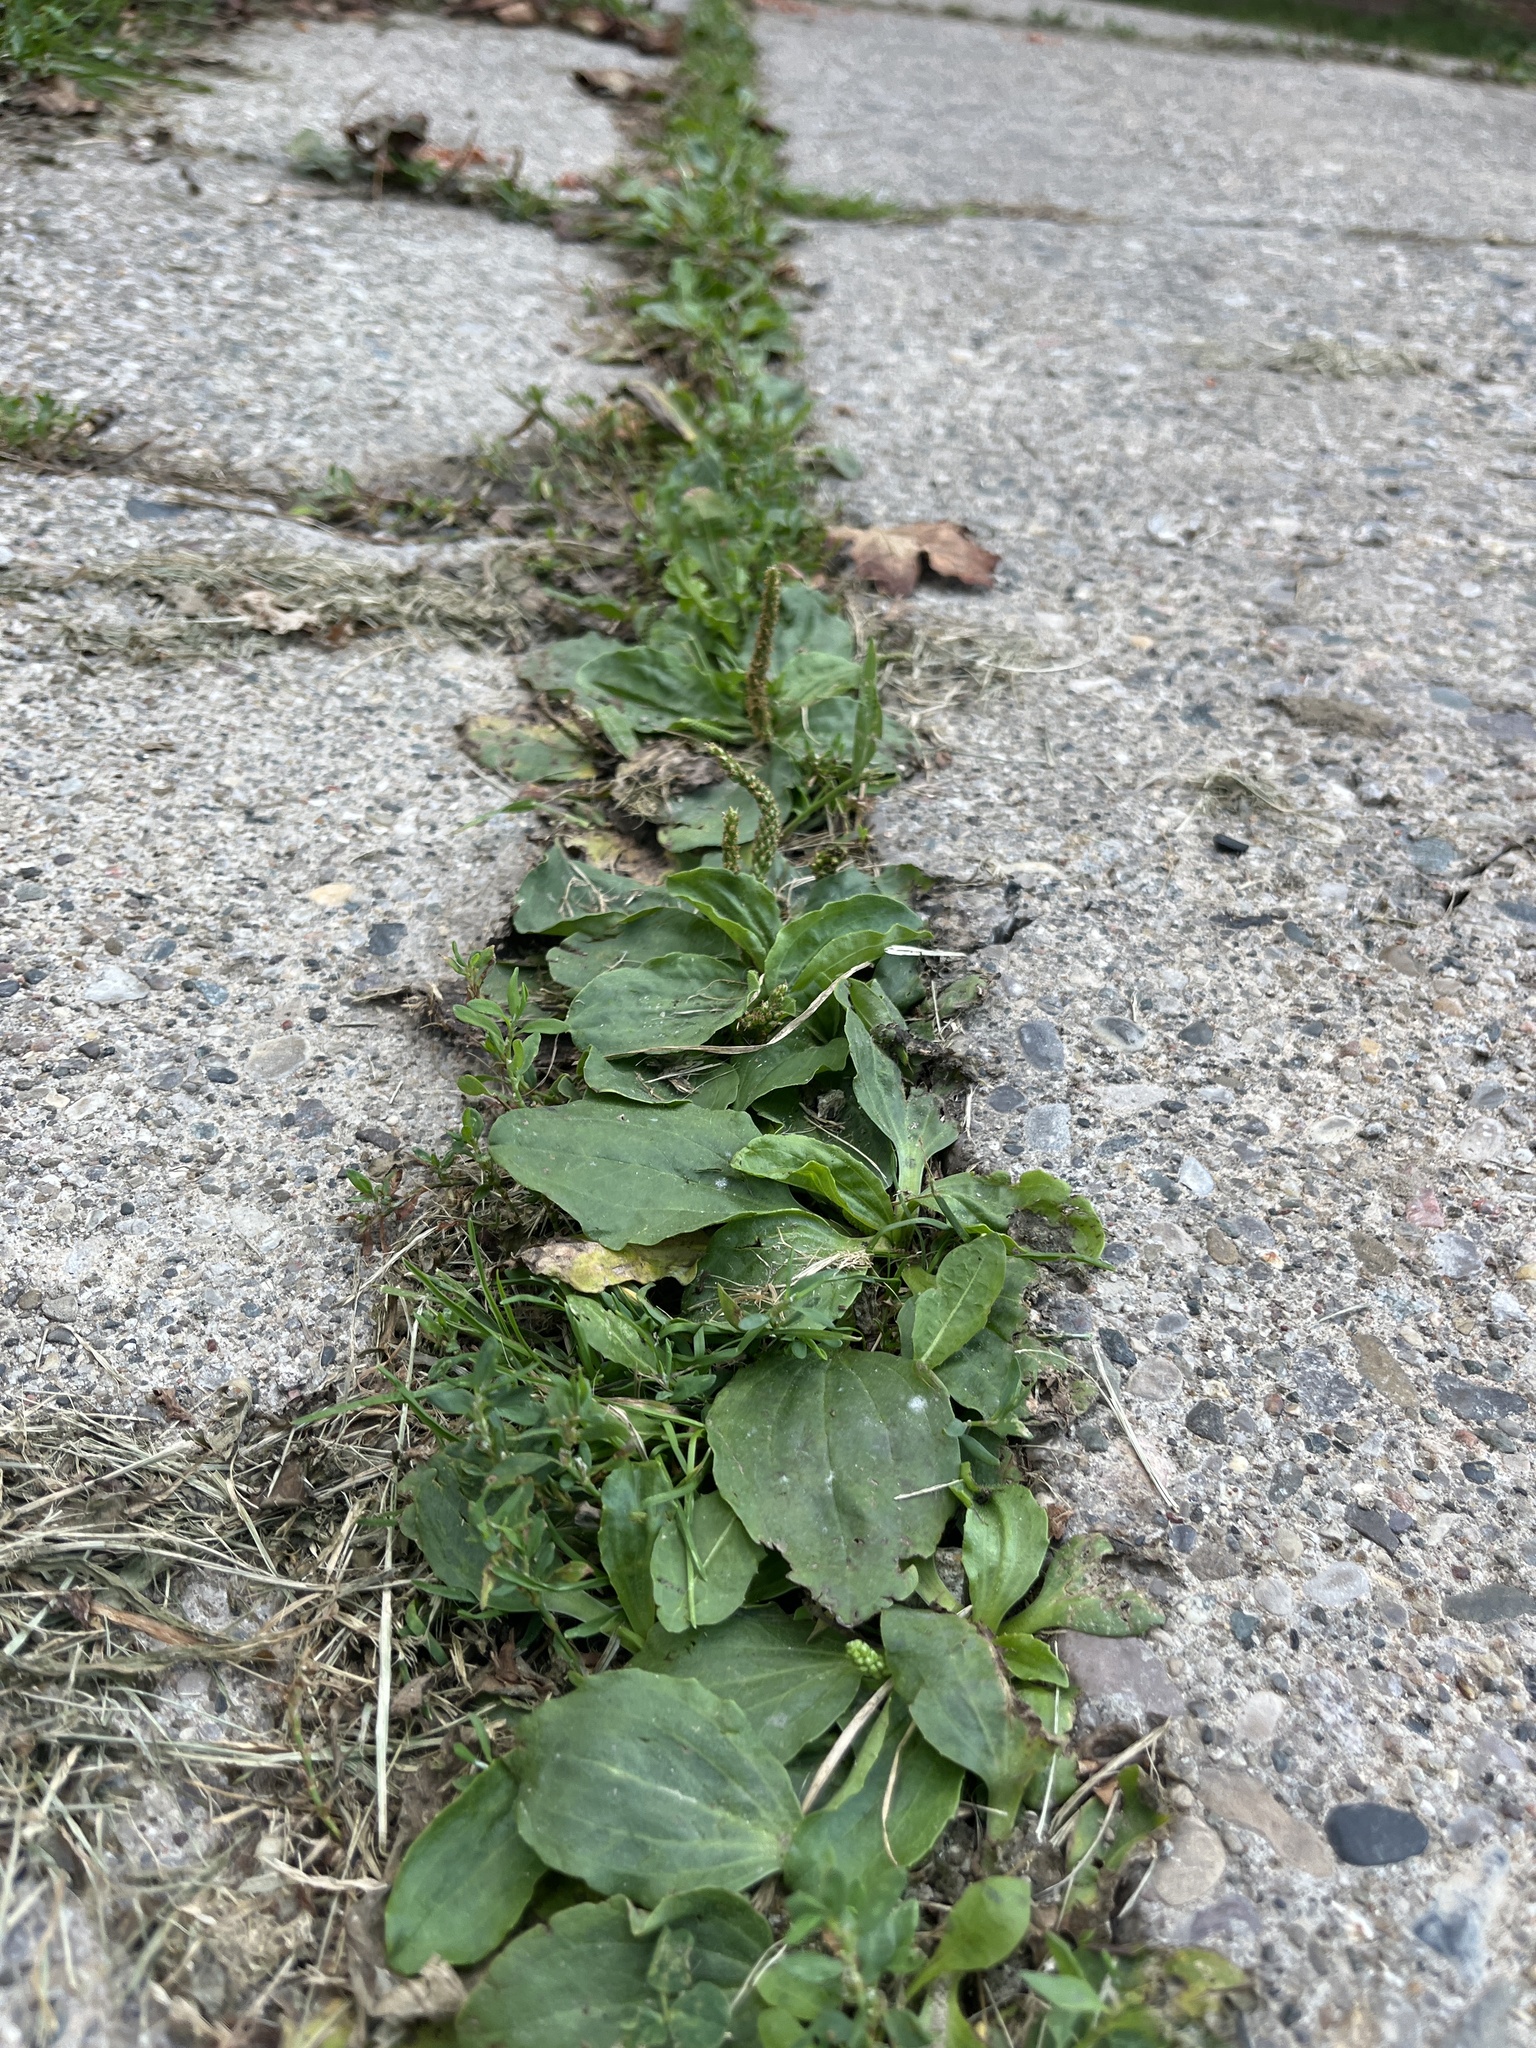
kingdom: Plantae
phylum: Tracheophyta
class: Magnoliopsida
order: Lamiales
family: Plantaginaceae
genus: Plantago
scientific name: Plantago major
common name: Common plantain
